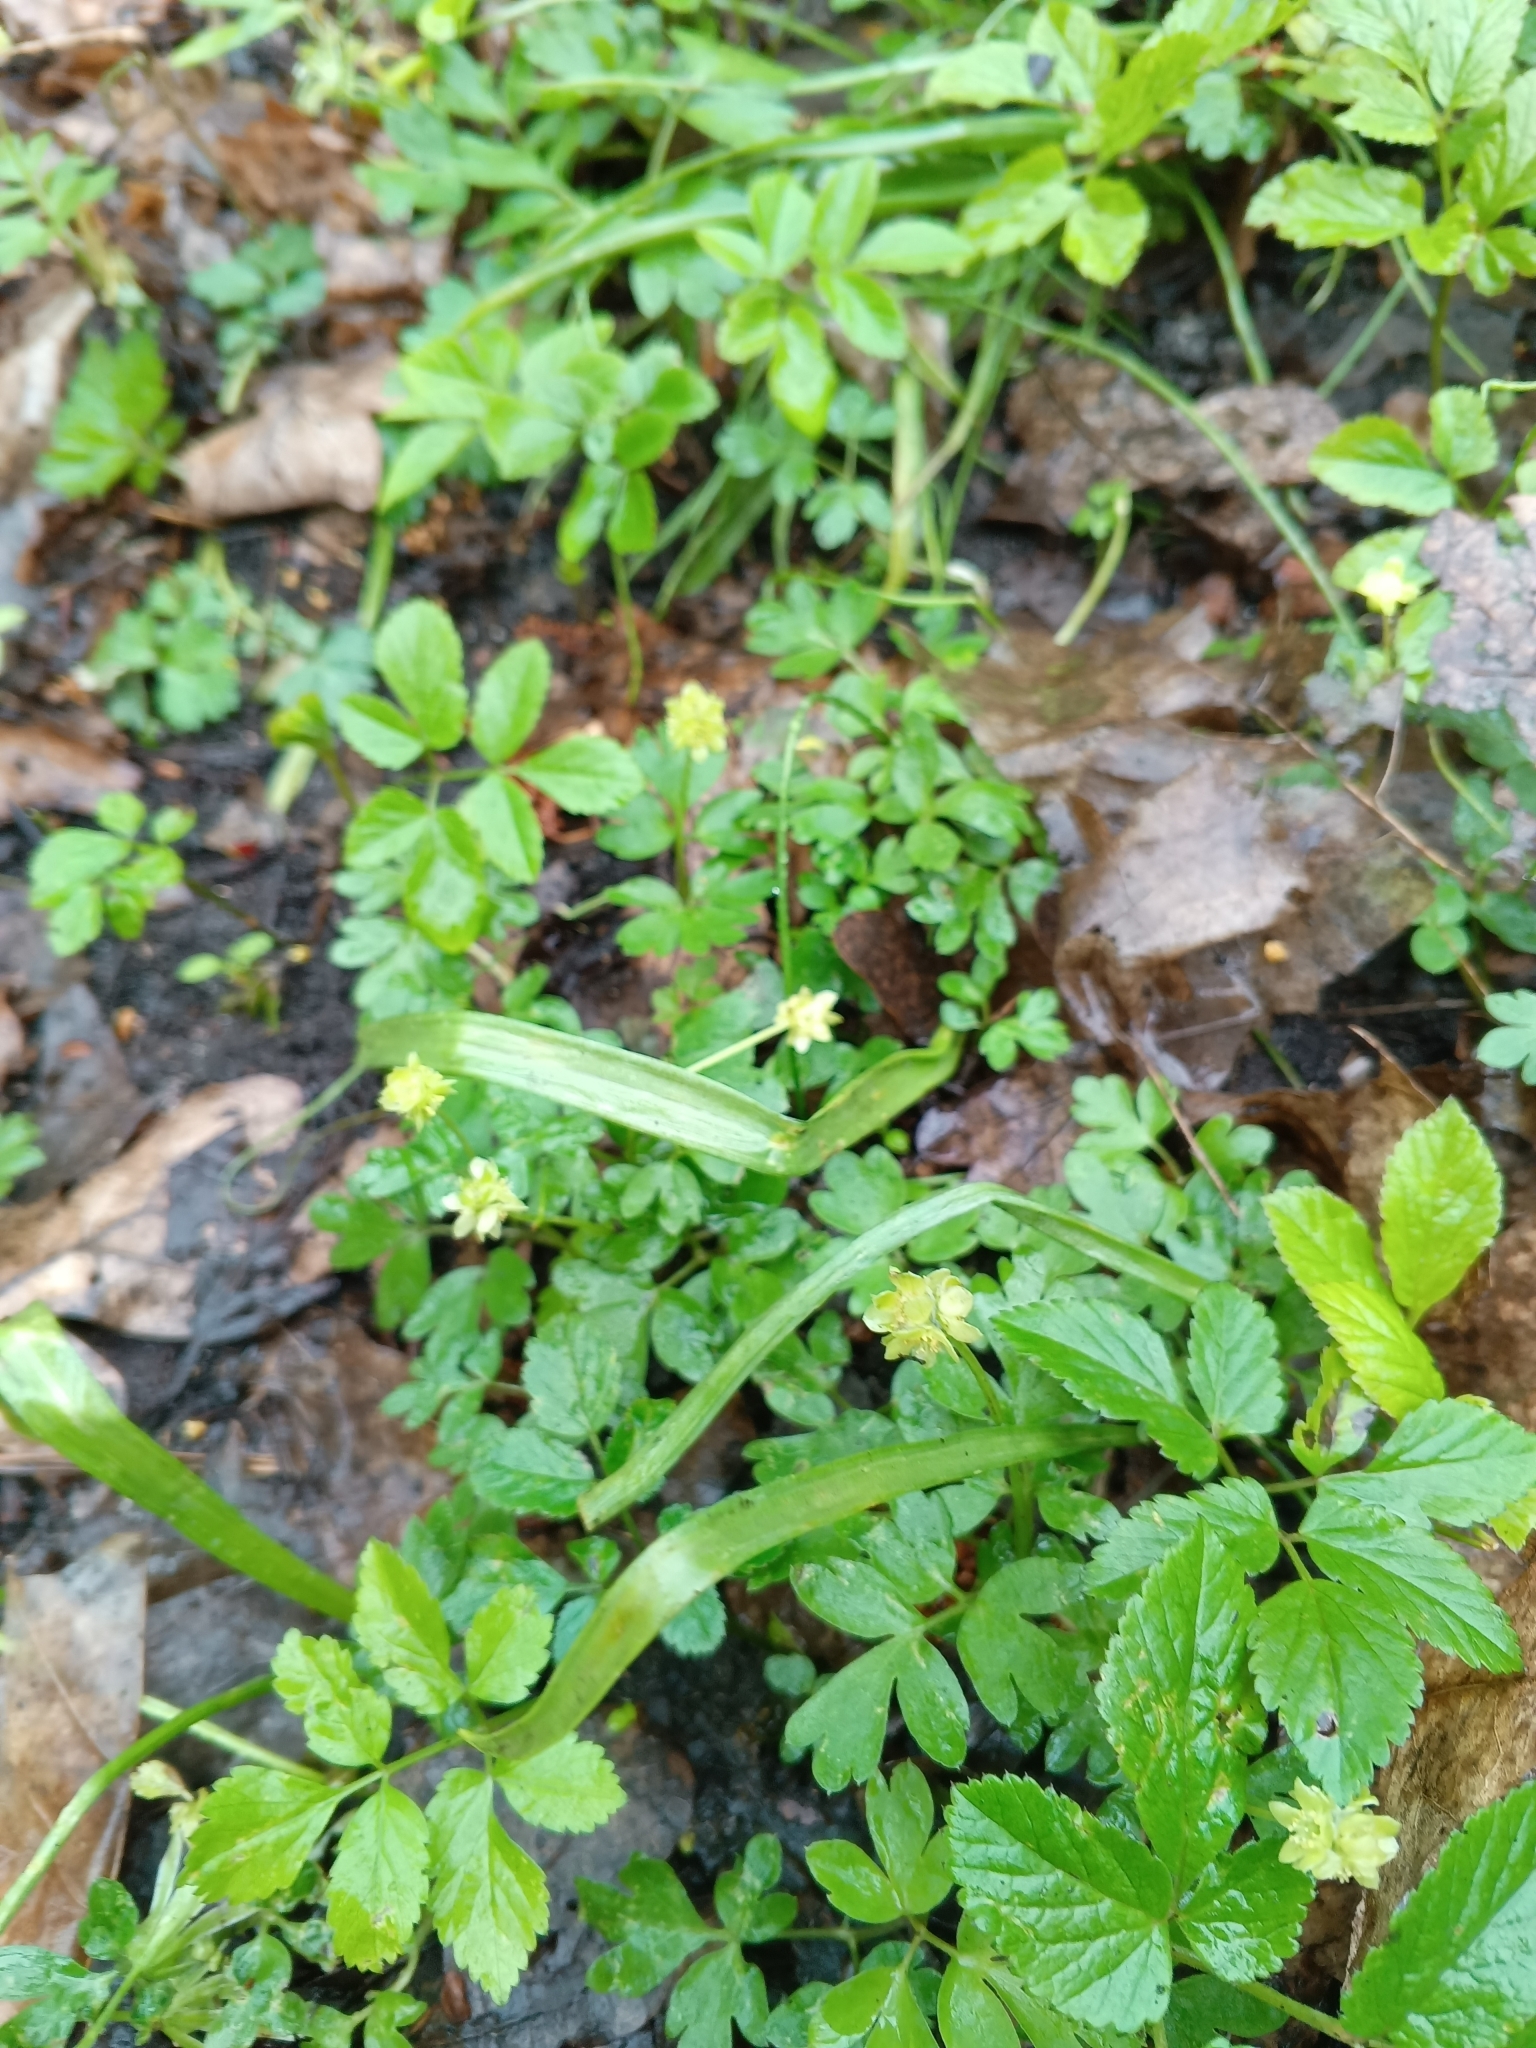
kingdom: Plantae
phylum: Tracheophyta
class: Magnoliopsida
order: Dipsacales
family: Viburnaceae
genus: Adoxa
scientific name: Adoxa moschatellina
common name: Moschatel
